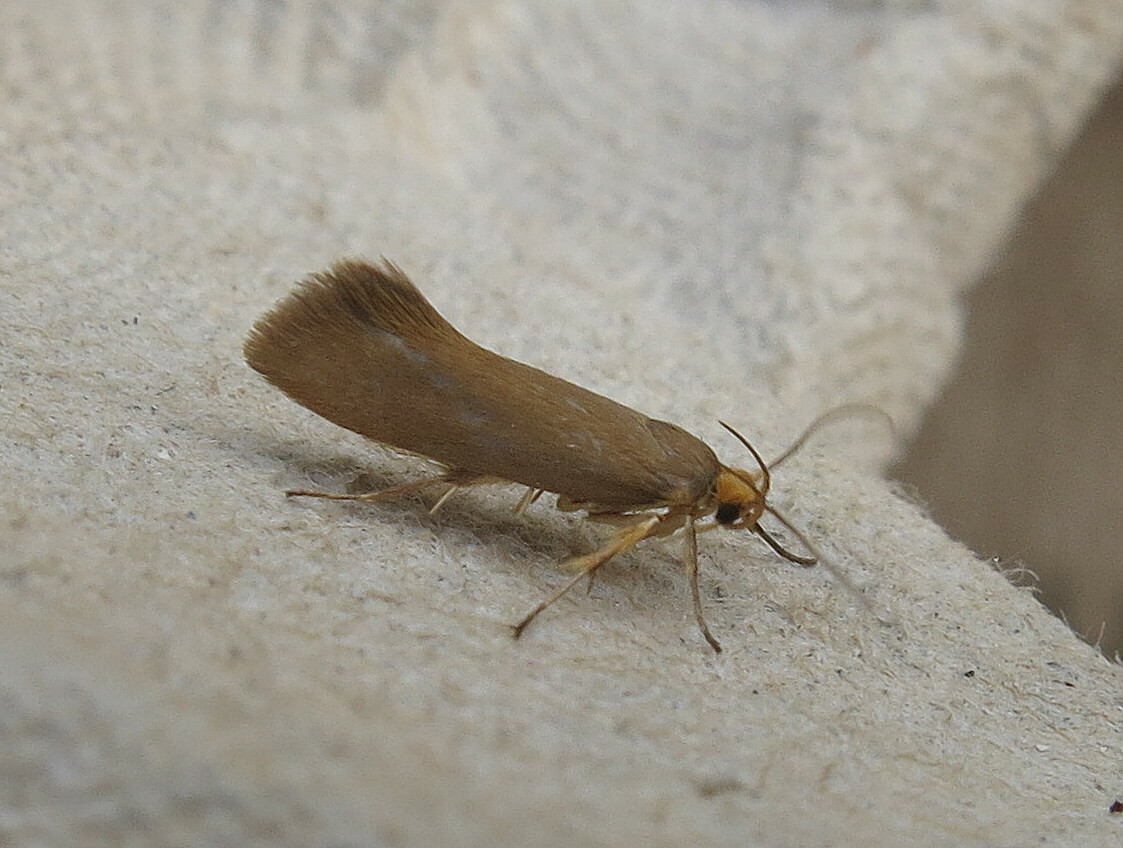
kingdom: Animalia
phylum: Arthropoda
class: Insecta
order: Lepidoptera
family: Oecophoridae
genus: Borkhausenia
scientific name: Borkhausenia Crassa unitella
